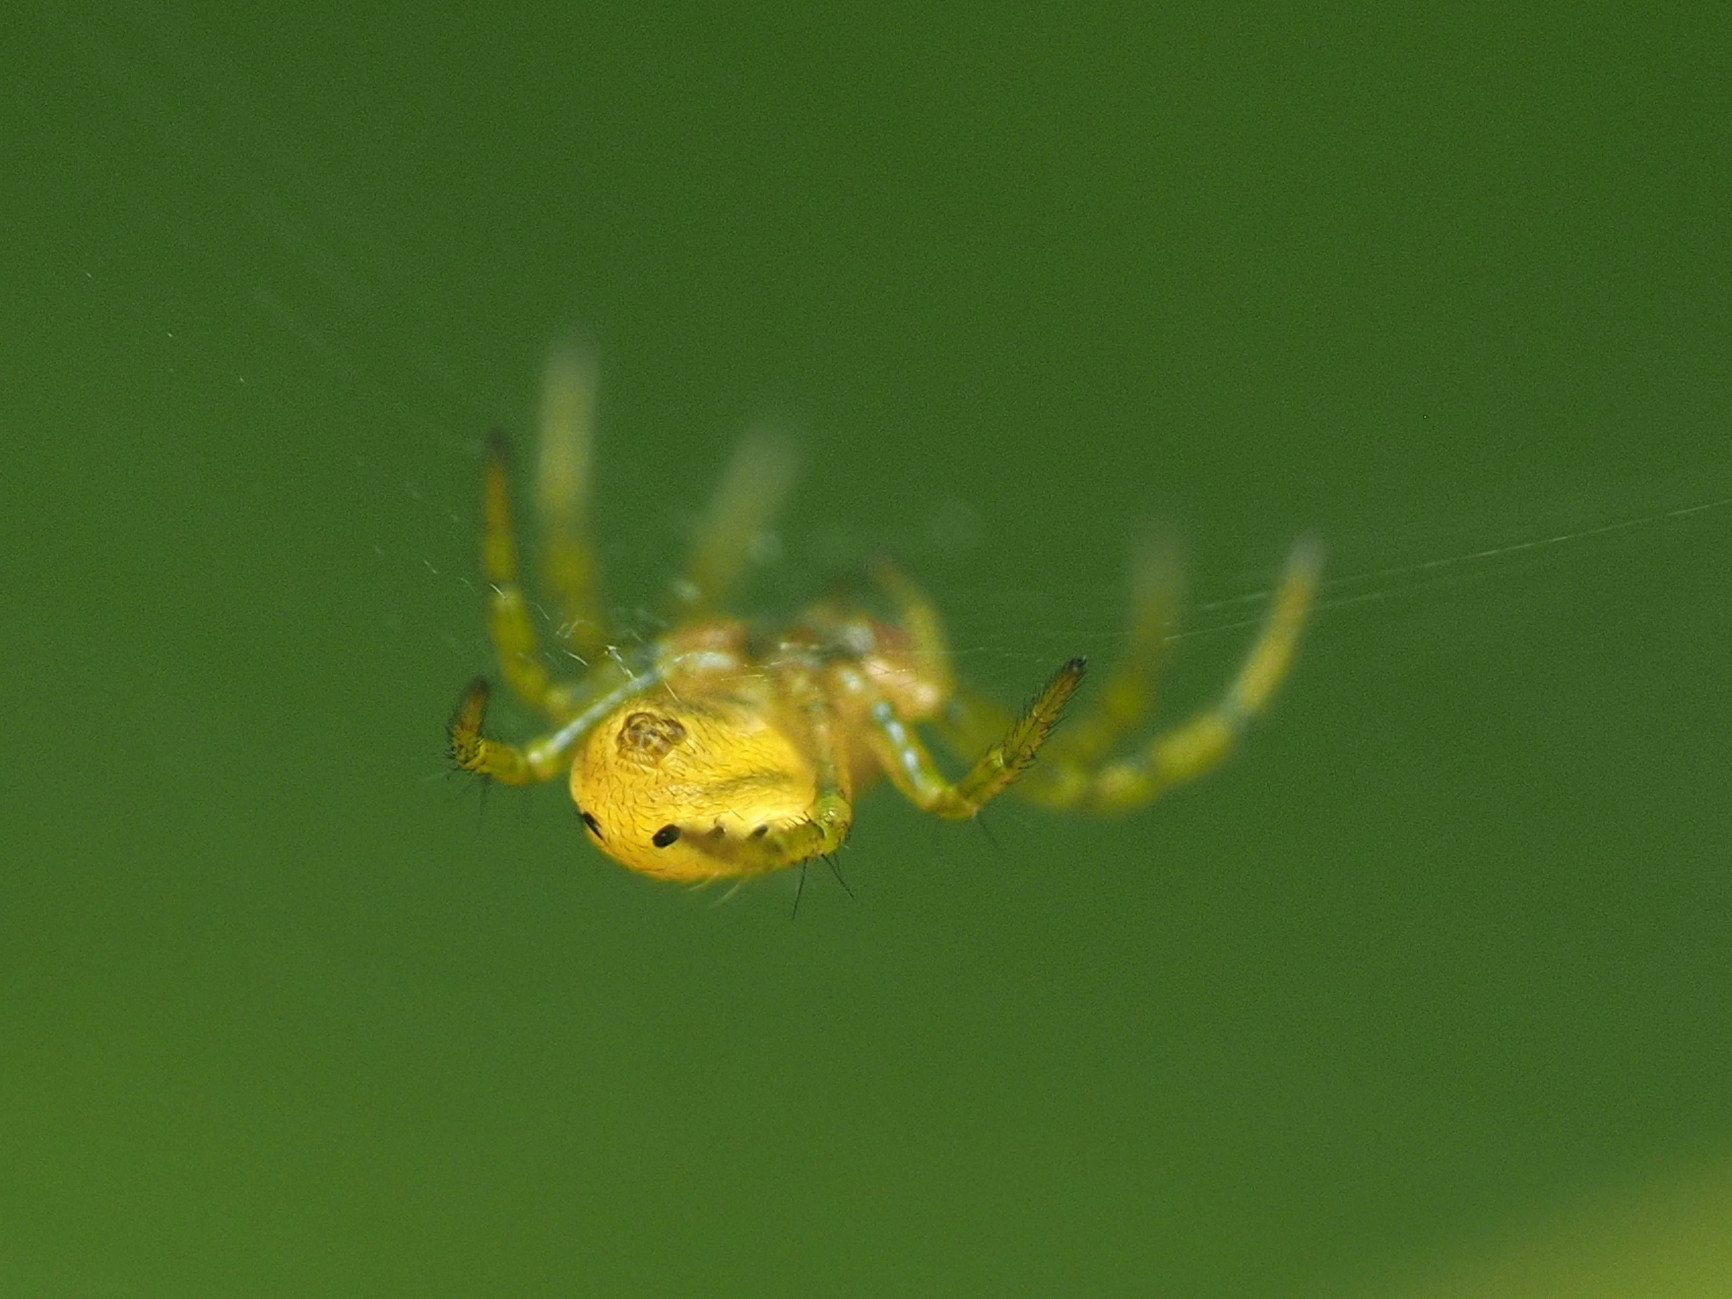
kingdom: Animalia
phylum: Arthropoda
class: Arachnida
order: Araneae
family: Araneidae
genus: Araniella
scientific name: Araniella displicata
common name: Sixspotted orb weaver
